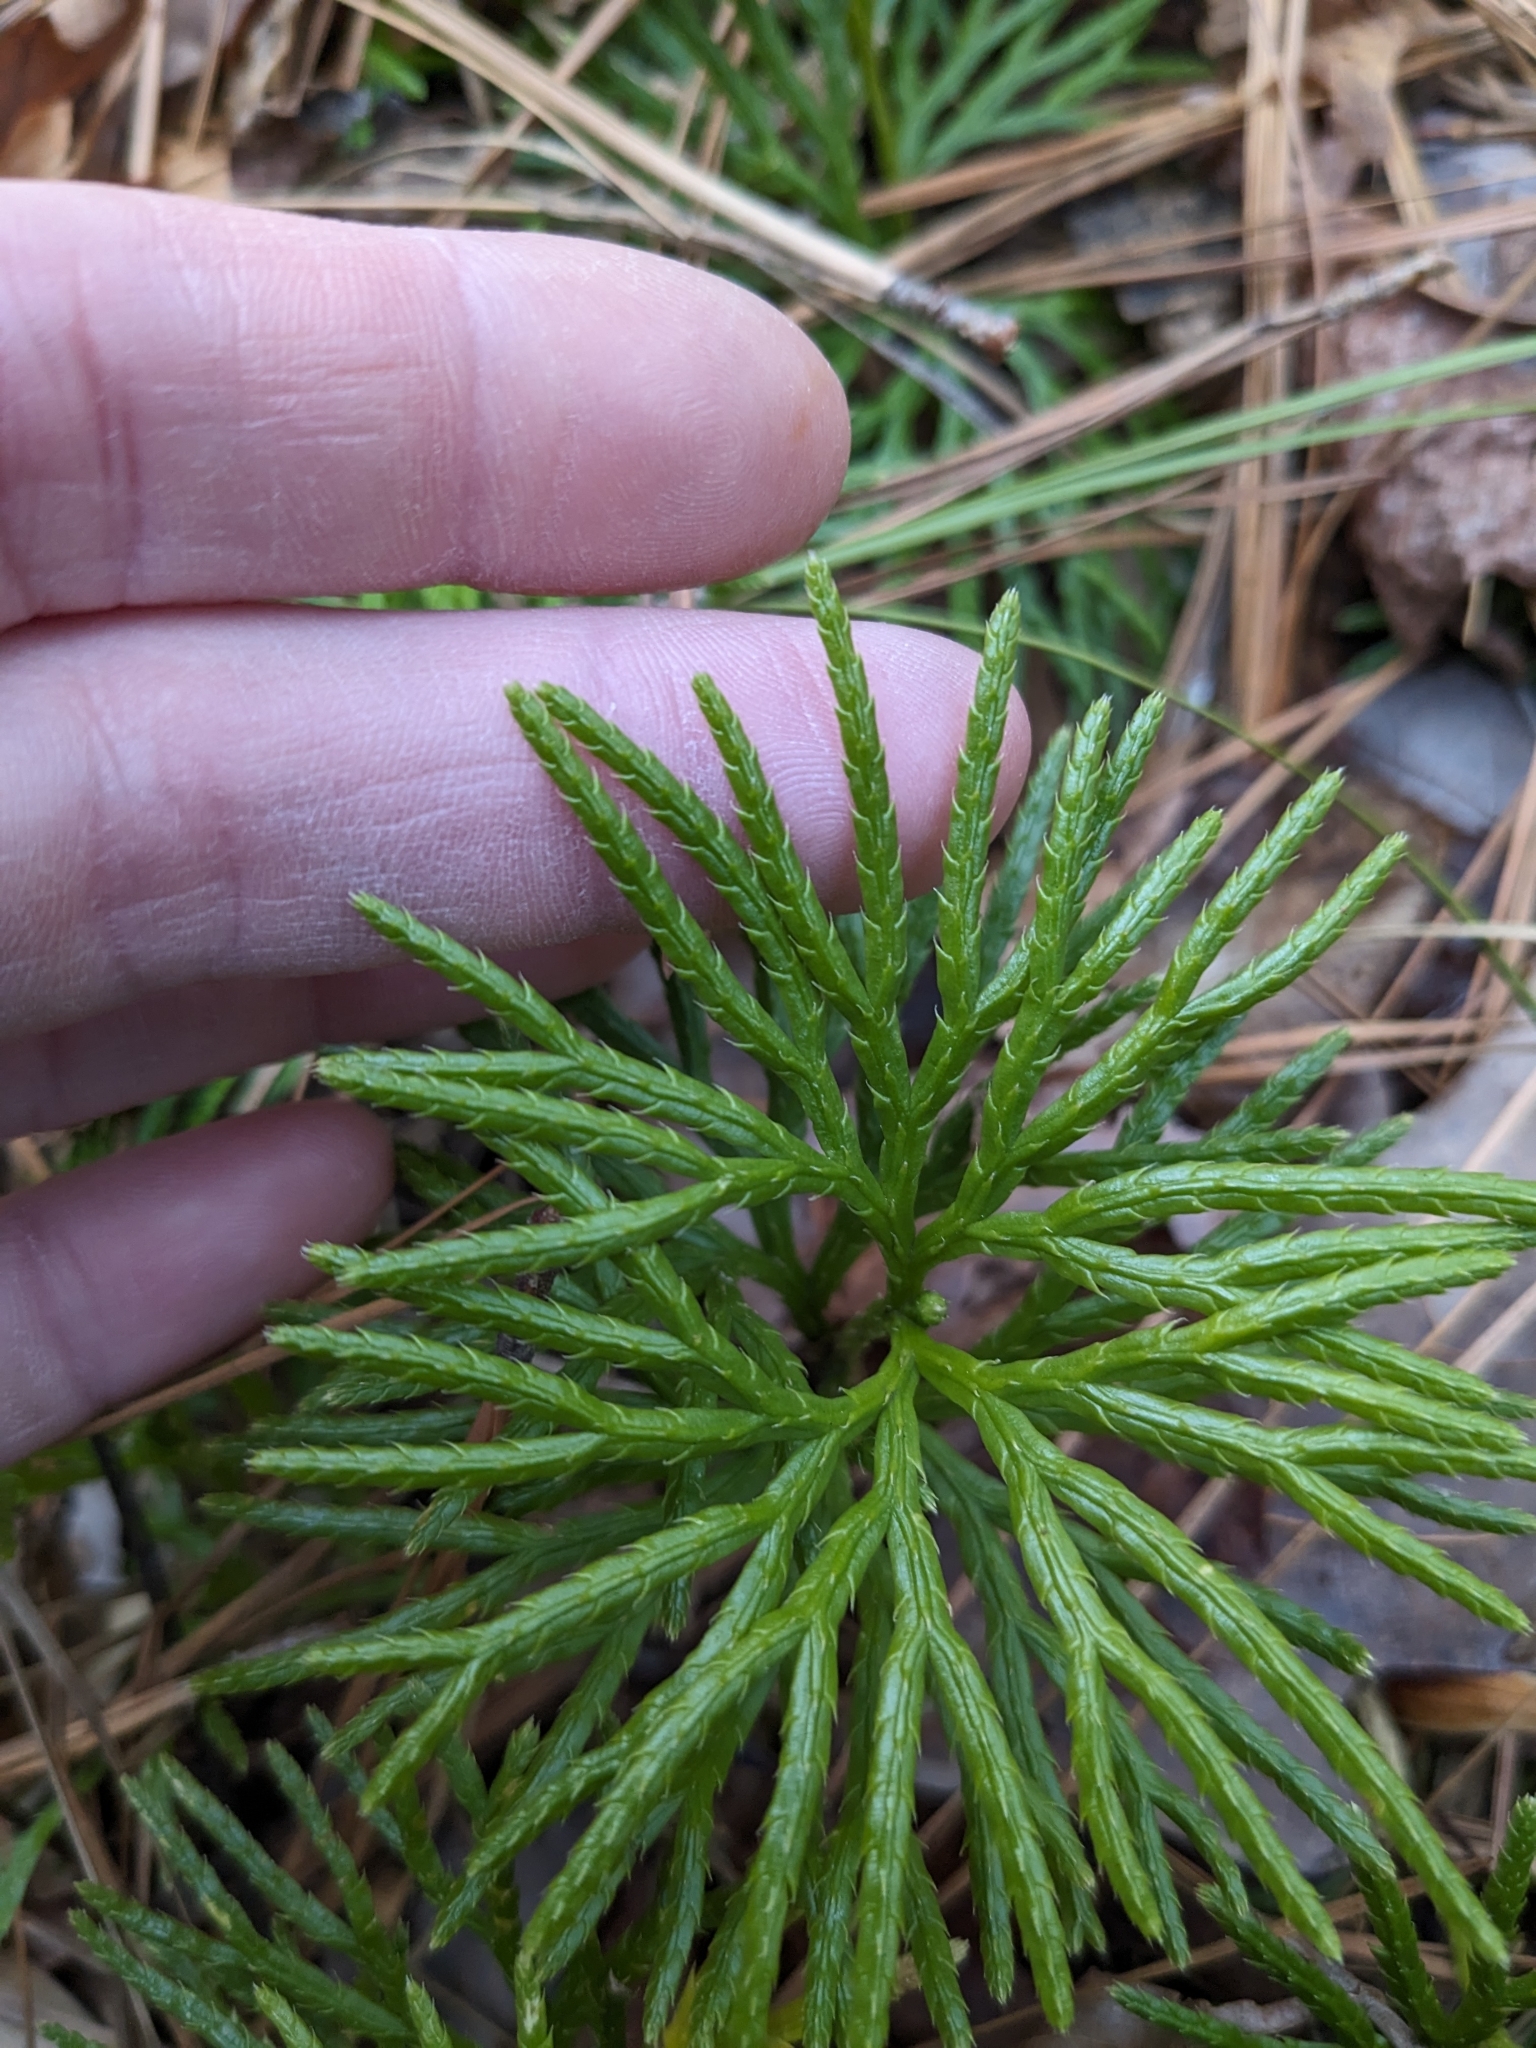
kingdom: Plantae
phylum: Tracheophyta
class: Lycopodiopsida
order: Lycopodiales
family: Lycopodiaceae
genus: Diphasiastrum
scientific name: Diphasiastrum digitatum
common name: Southern running-pine
